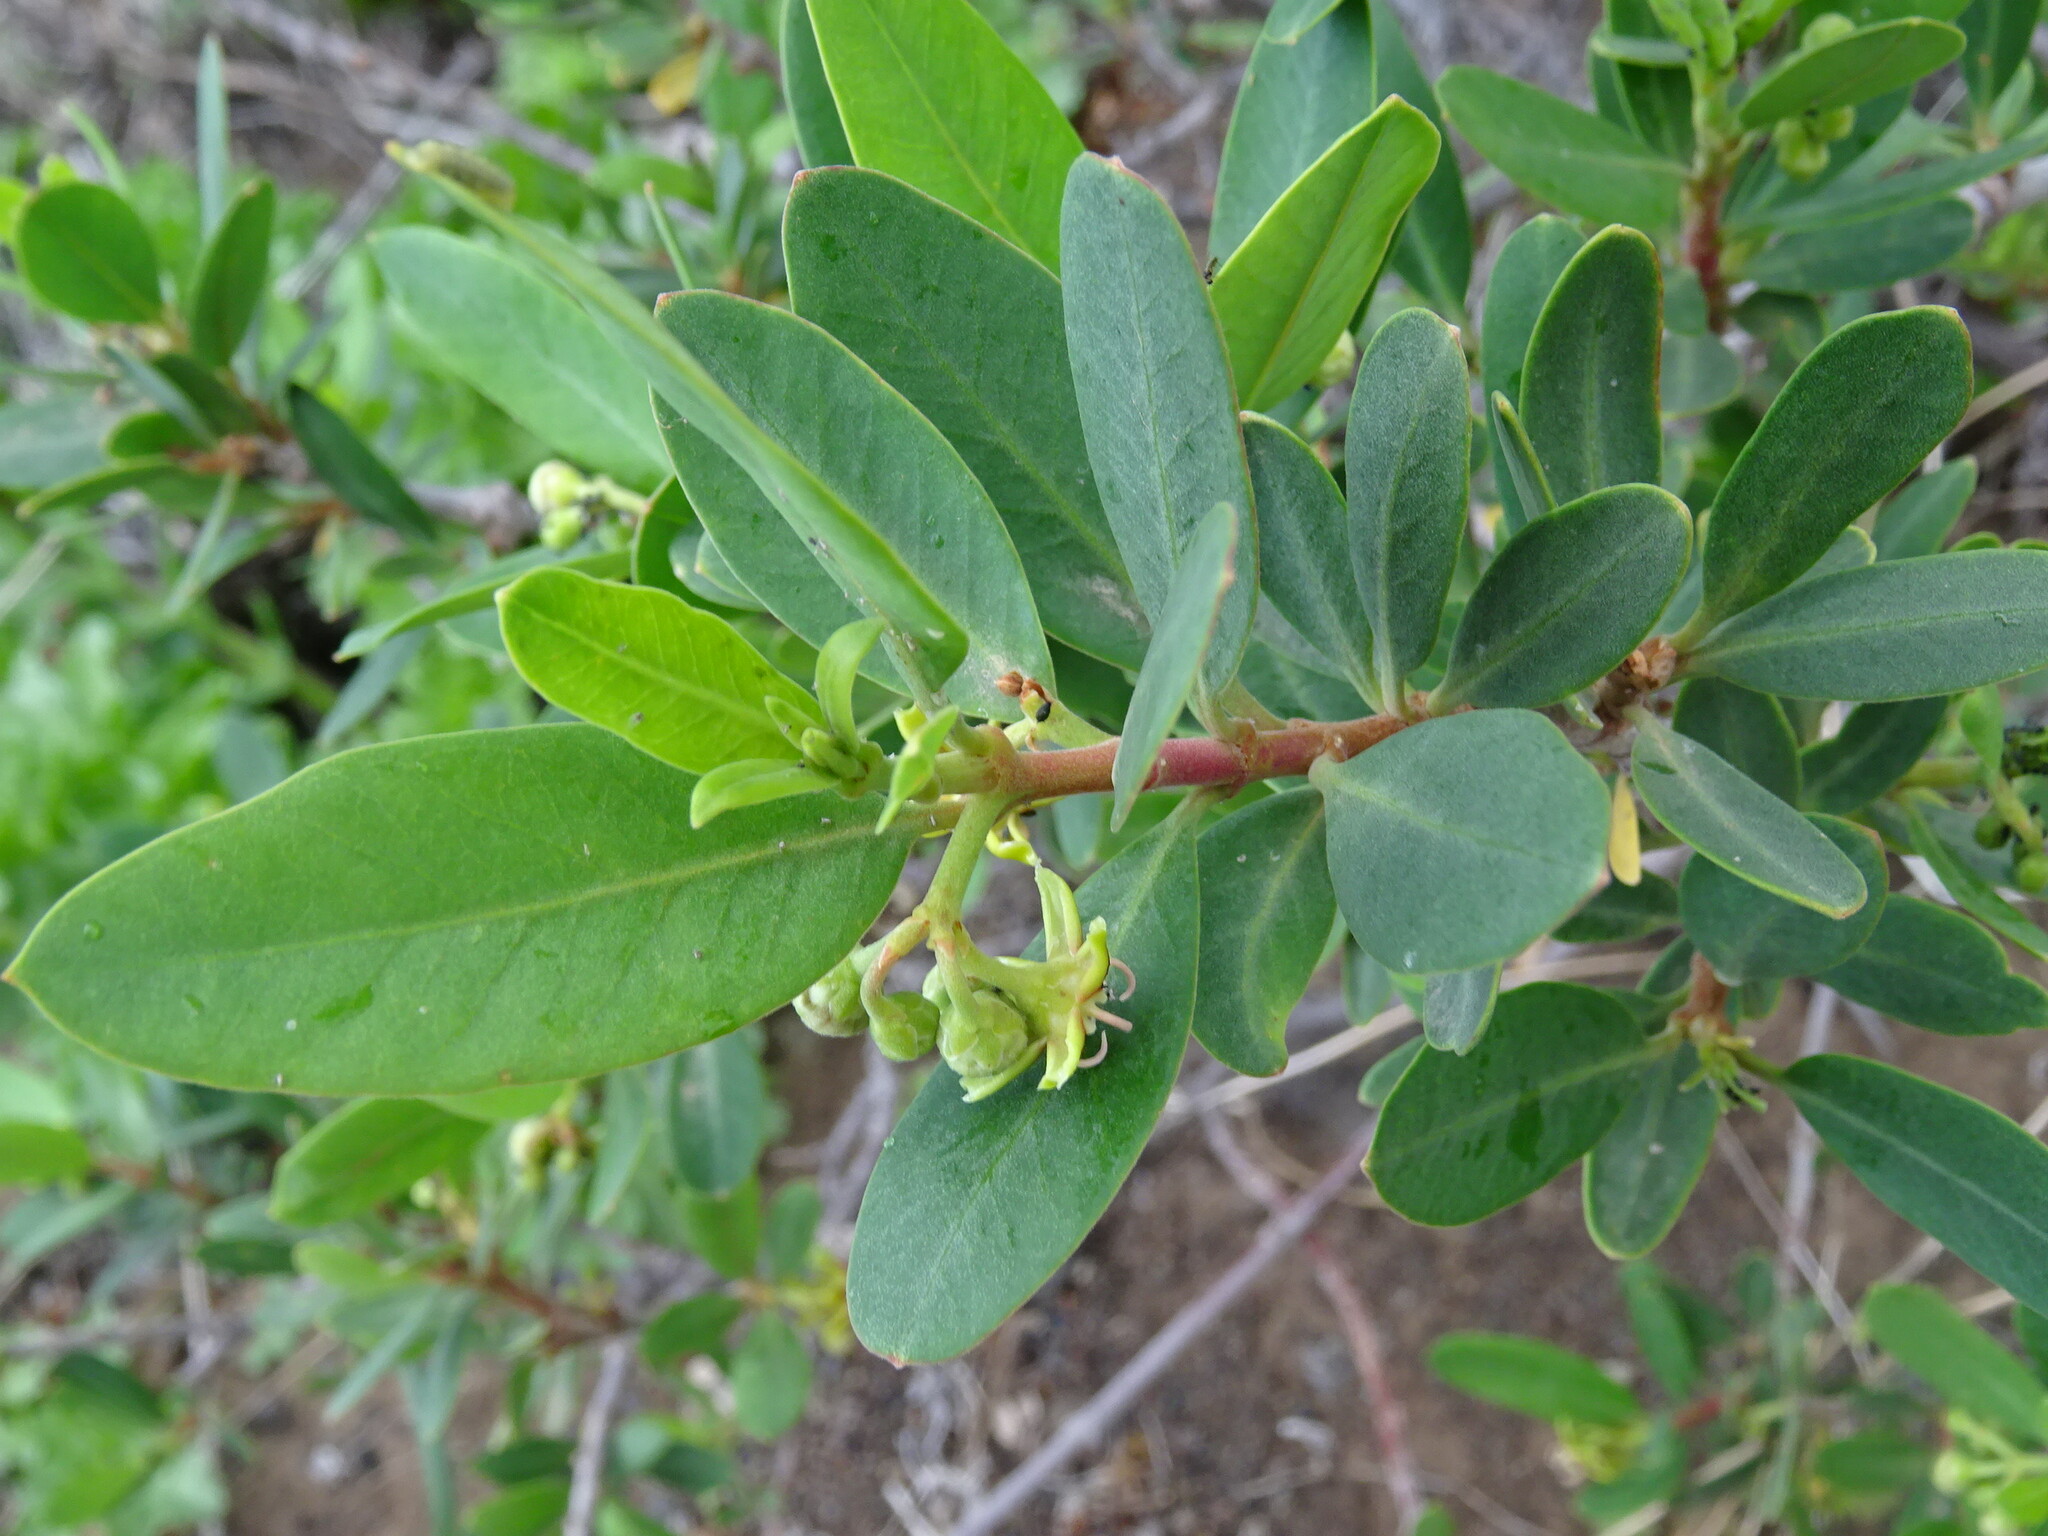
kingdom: Plantae
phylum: Tracheophyta
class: Magnoliopsida
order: Gentianales
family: Apocynaceae
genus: Periploca
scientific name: Periploca laevigata
